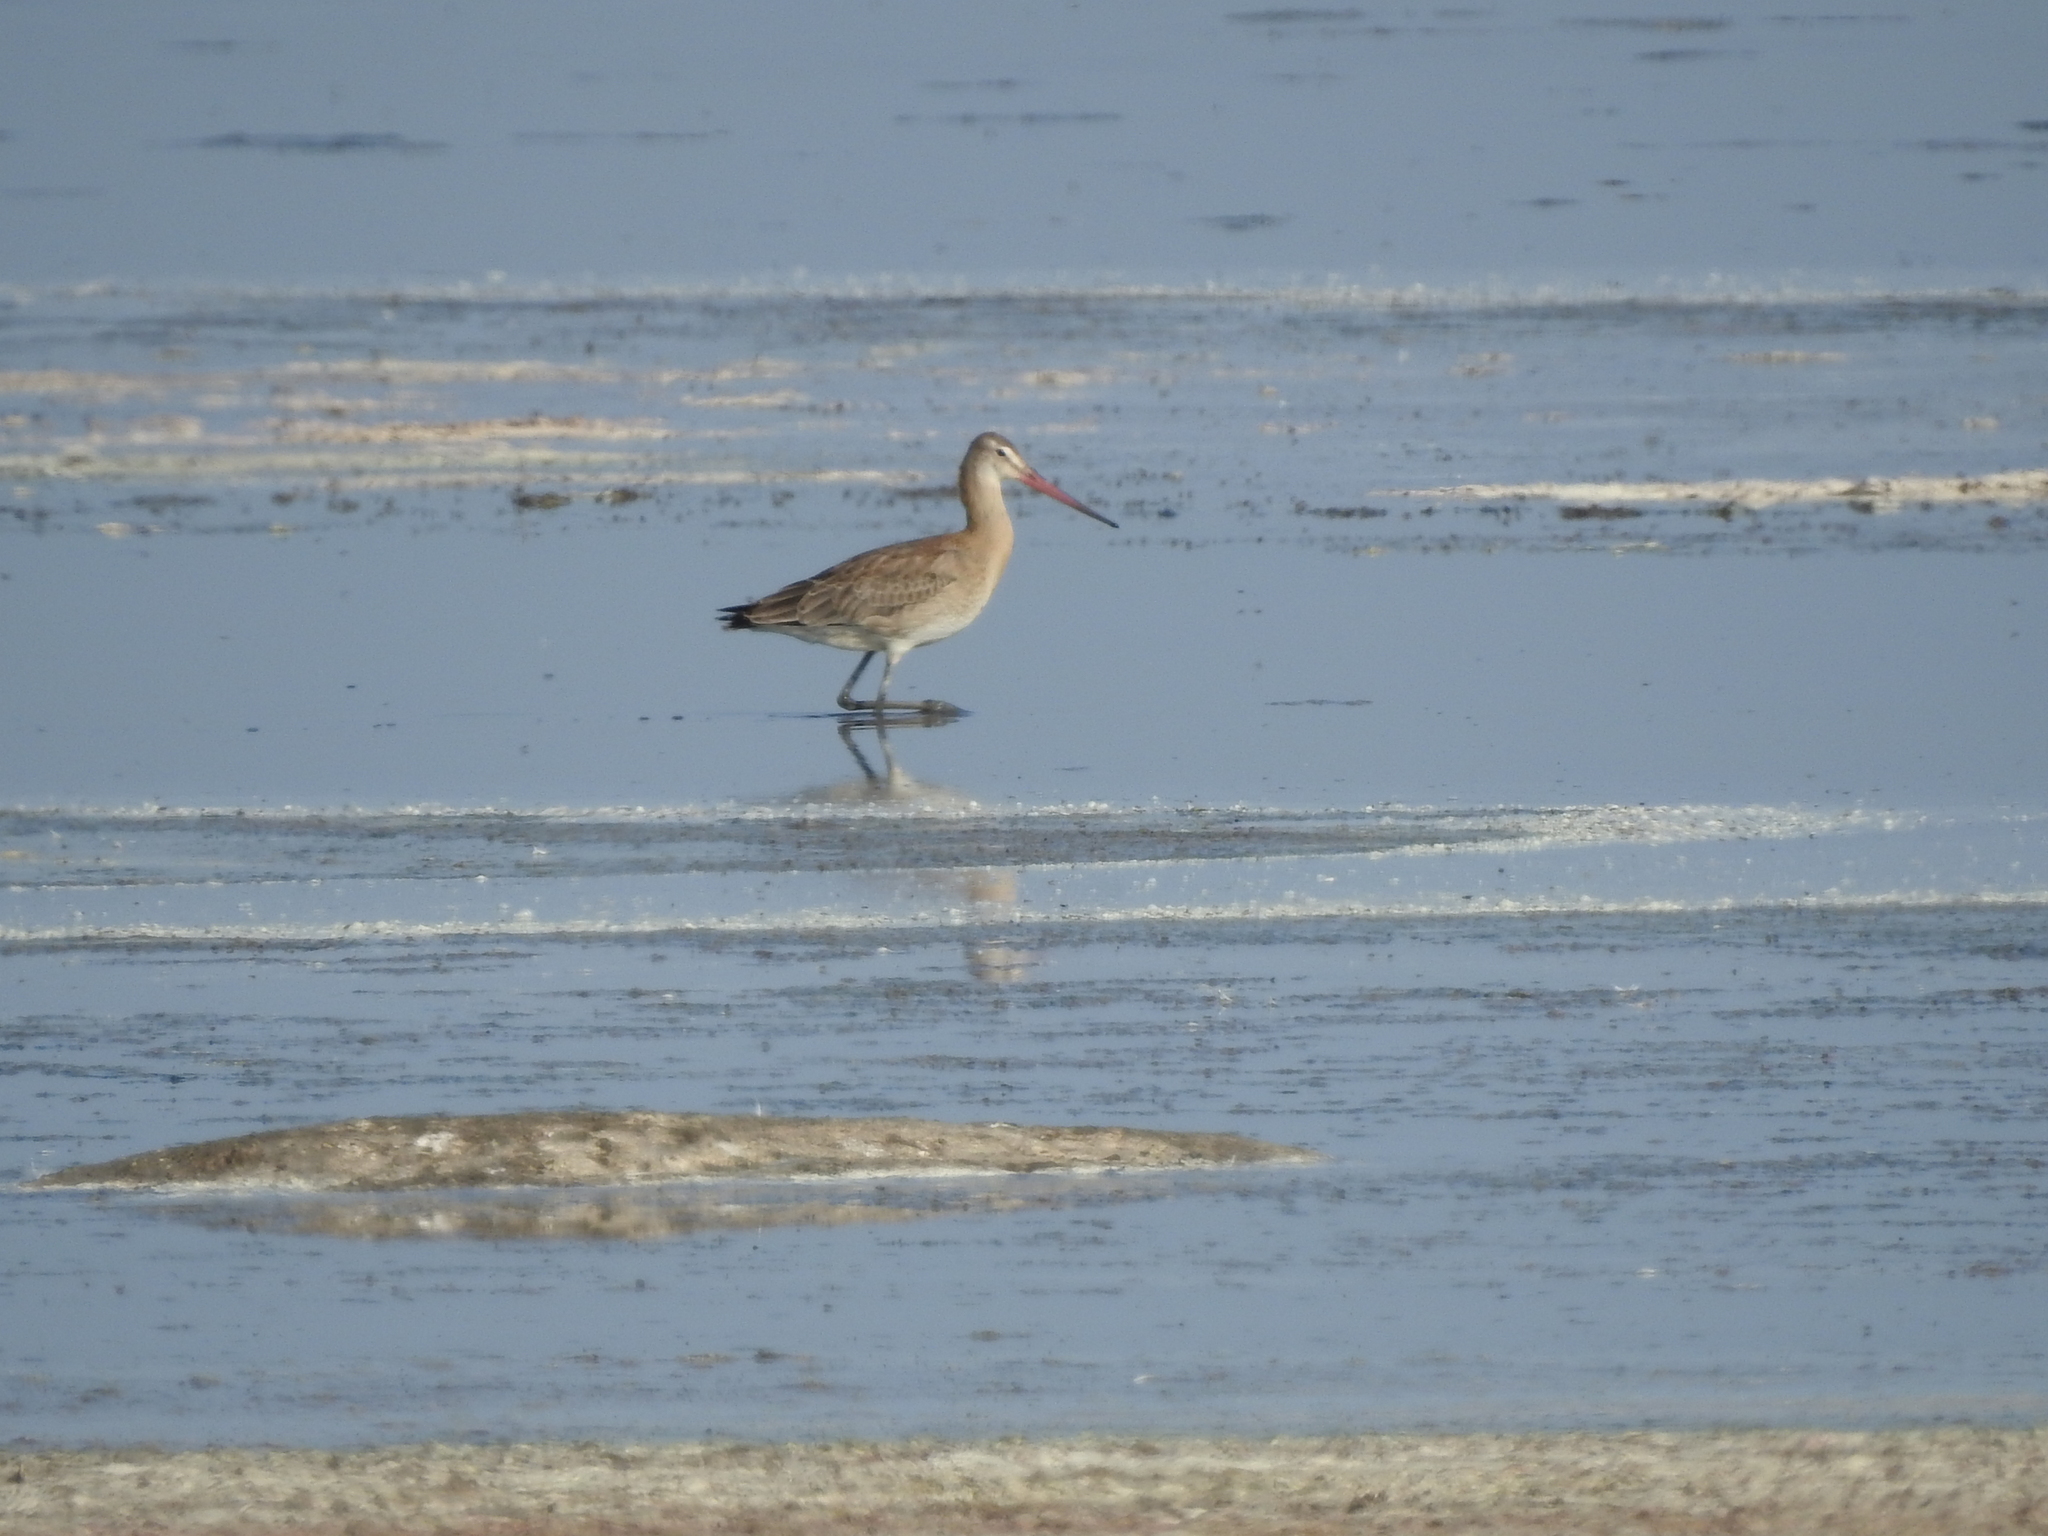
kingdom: Animalia
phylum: Chordata
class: Aves
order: Charadriiformes
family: Scolopacidae
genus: Limosa
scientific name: Limosa limosa
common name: Black-tailed godwit
